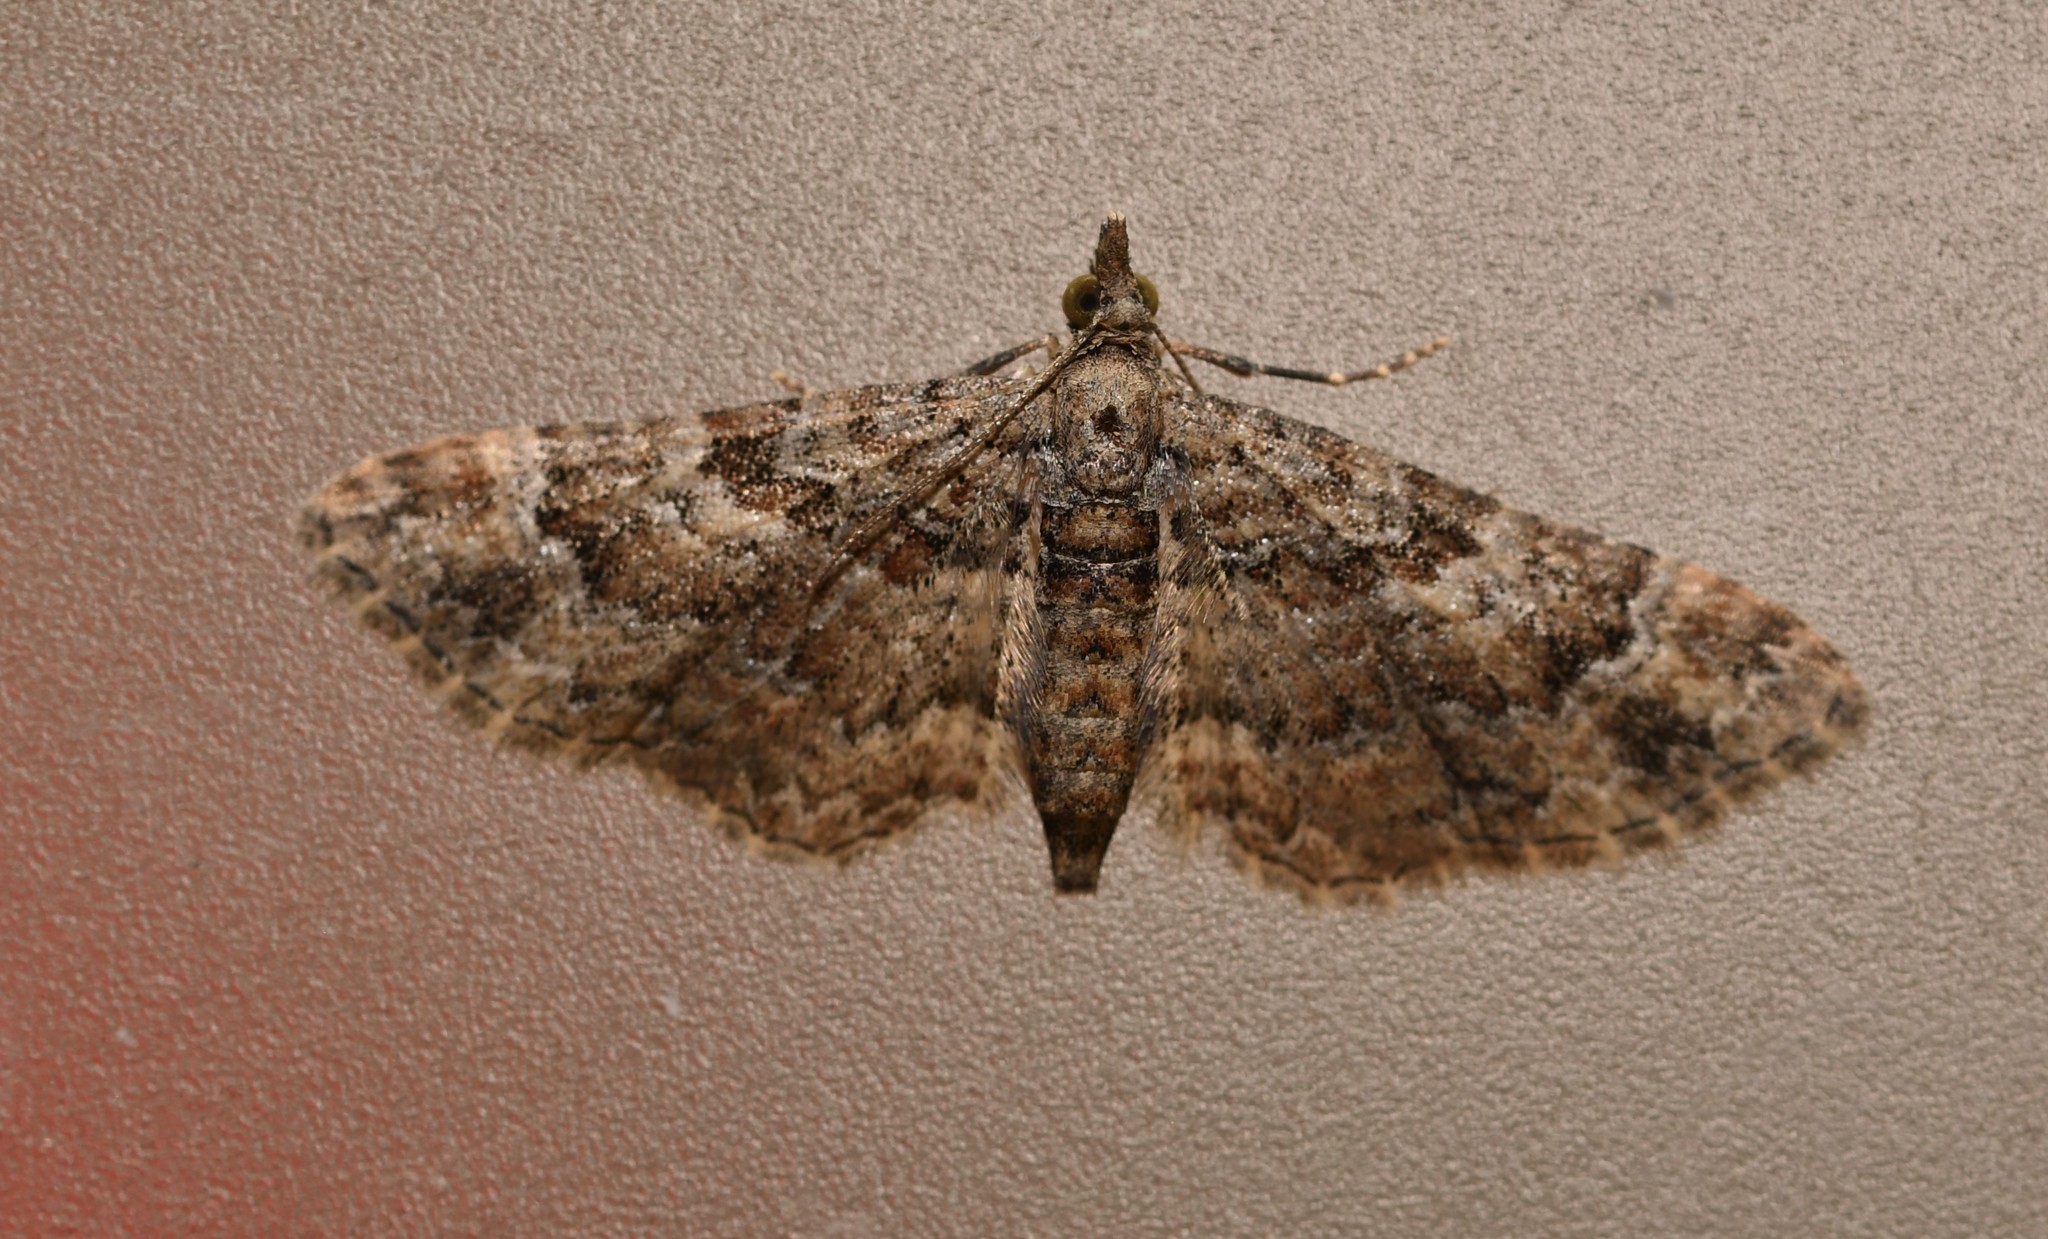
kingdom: Animalia
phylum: Arthropoda
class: Insecta
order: Lepidoptera
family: Geometridae
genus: Gymnoscelis
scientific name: Gymnoscelis rufifasciata
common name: Double-striped pug
